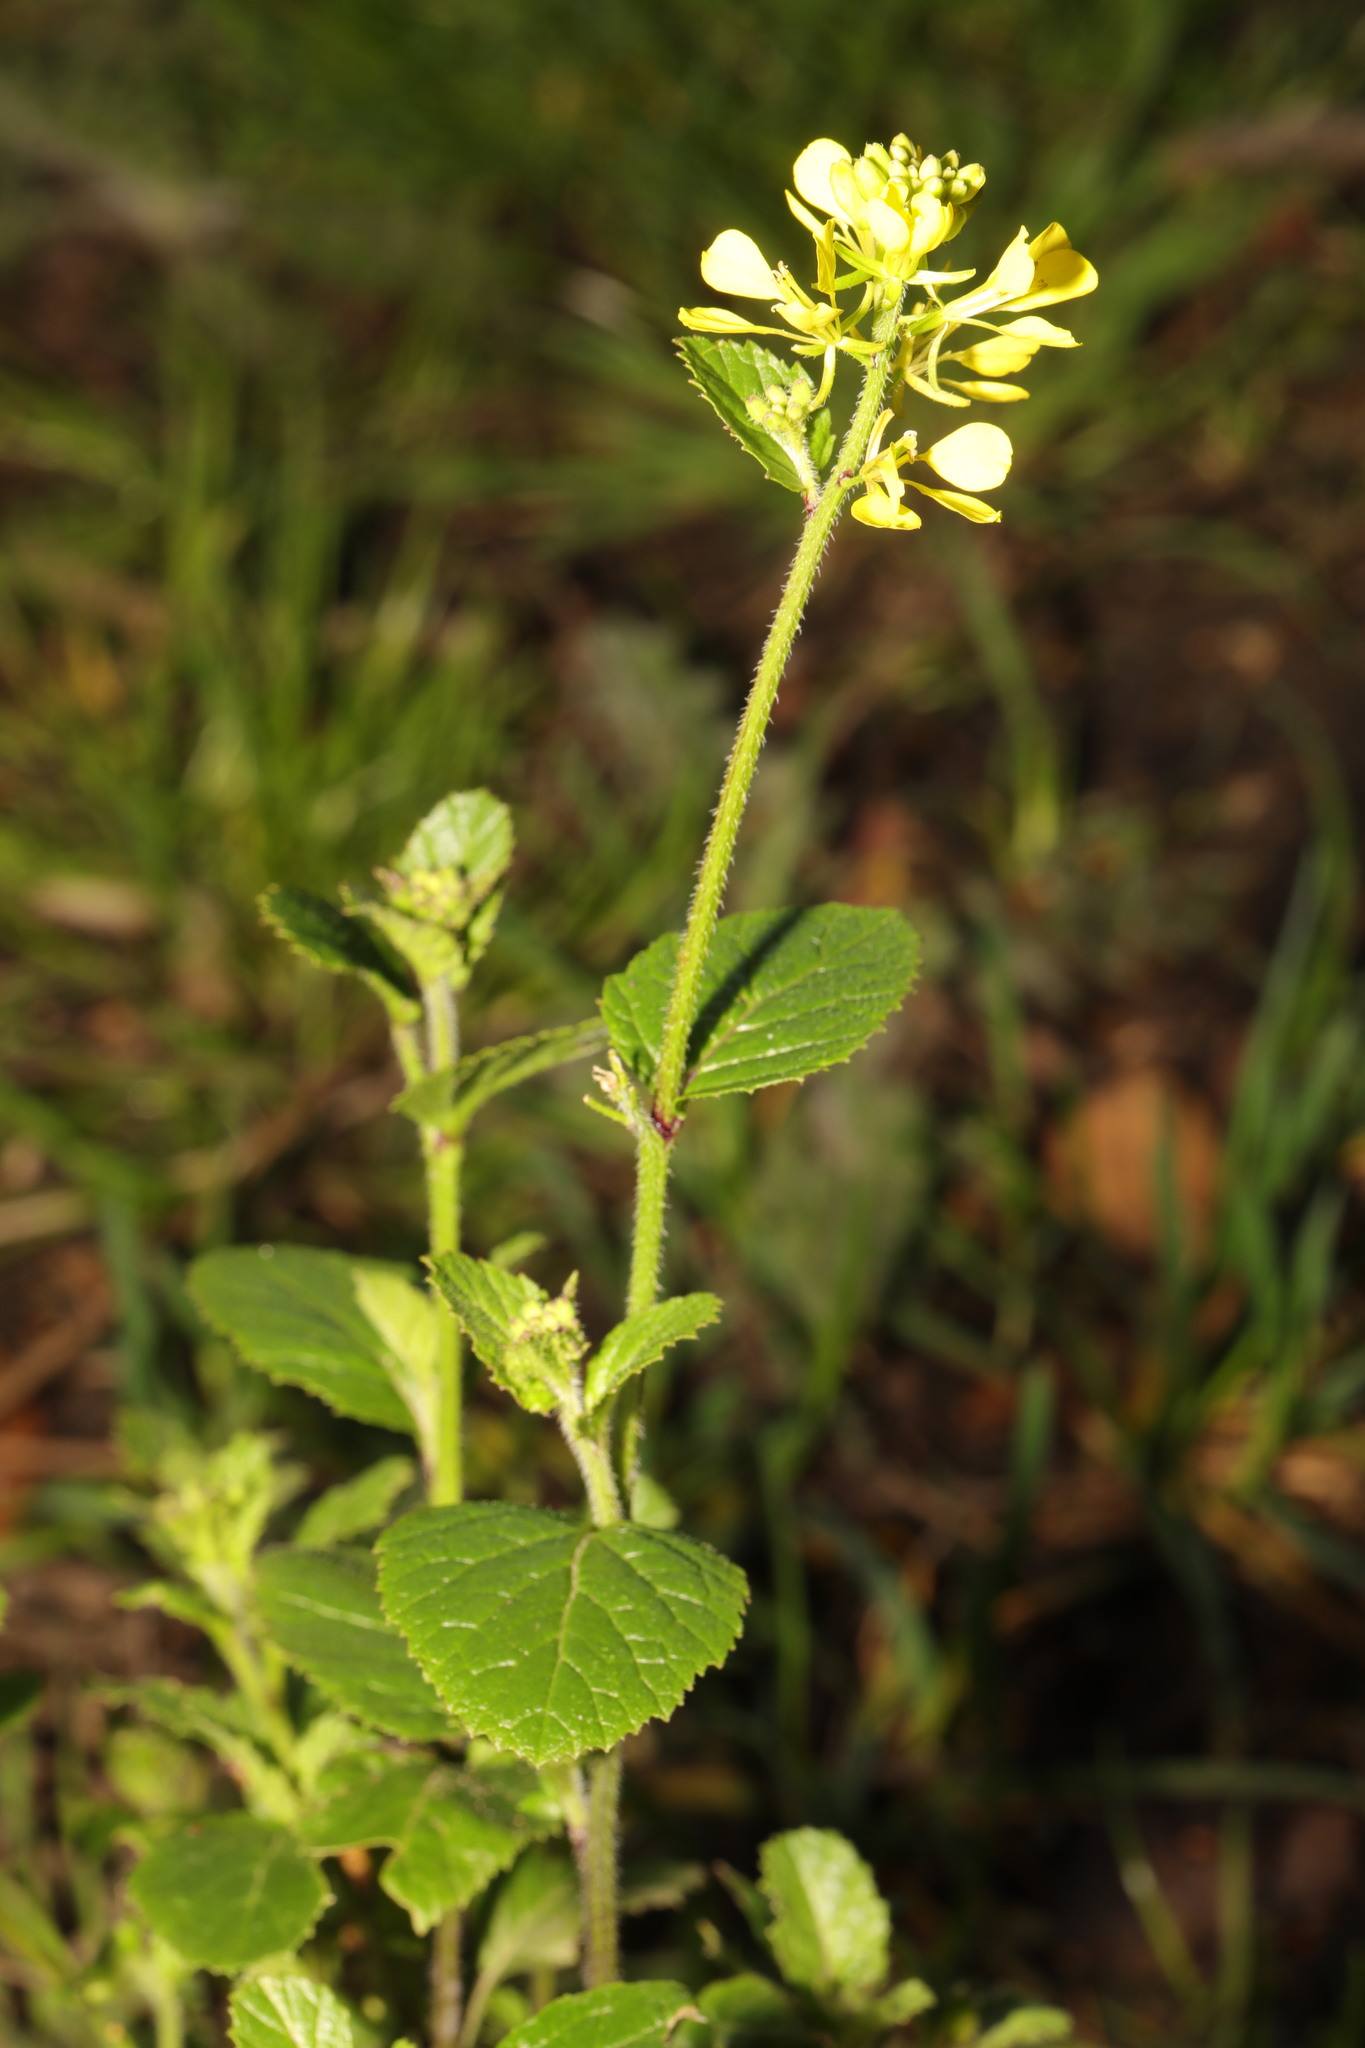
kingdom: Plantae
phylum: Tracheophyta
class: Magnoliopsida
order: Brassicales
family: Brassicaceae
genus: Sinapis
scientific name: Sinapis arvensis
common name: Charlock
